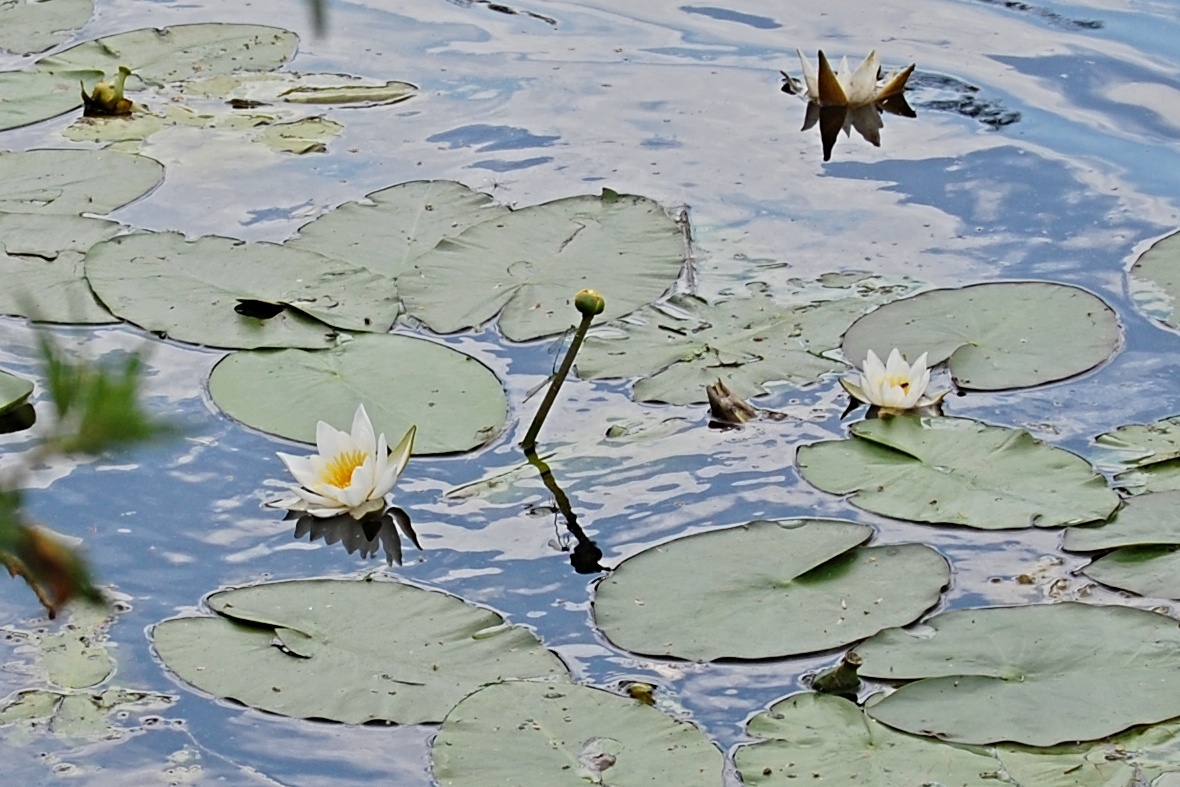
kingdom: Plantae
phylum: Tracheophyta
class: Magnoliopsida
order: Nymphaeales
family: Nymphaeaceae
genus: Nymphaea
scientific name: Nymphaea alba
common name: White water-lily
